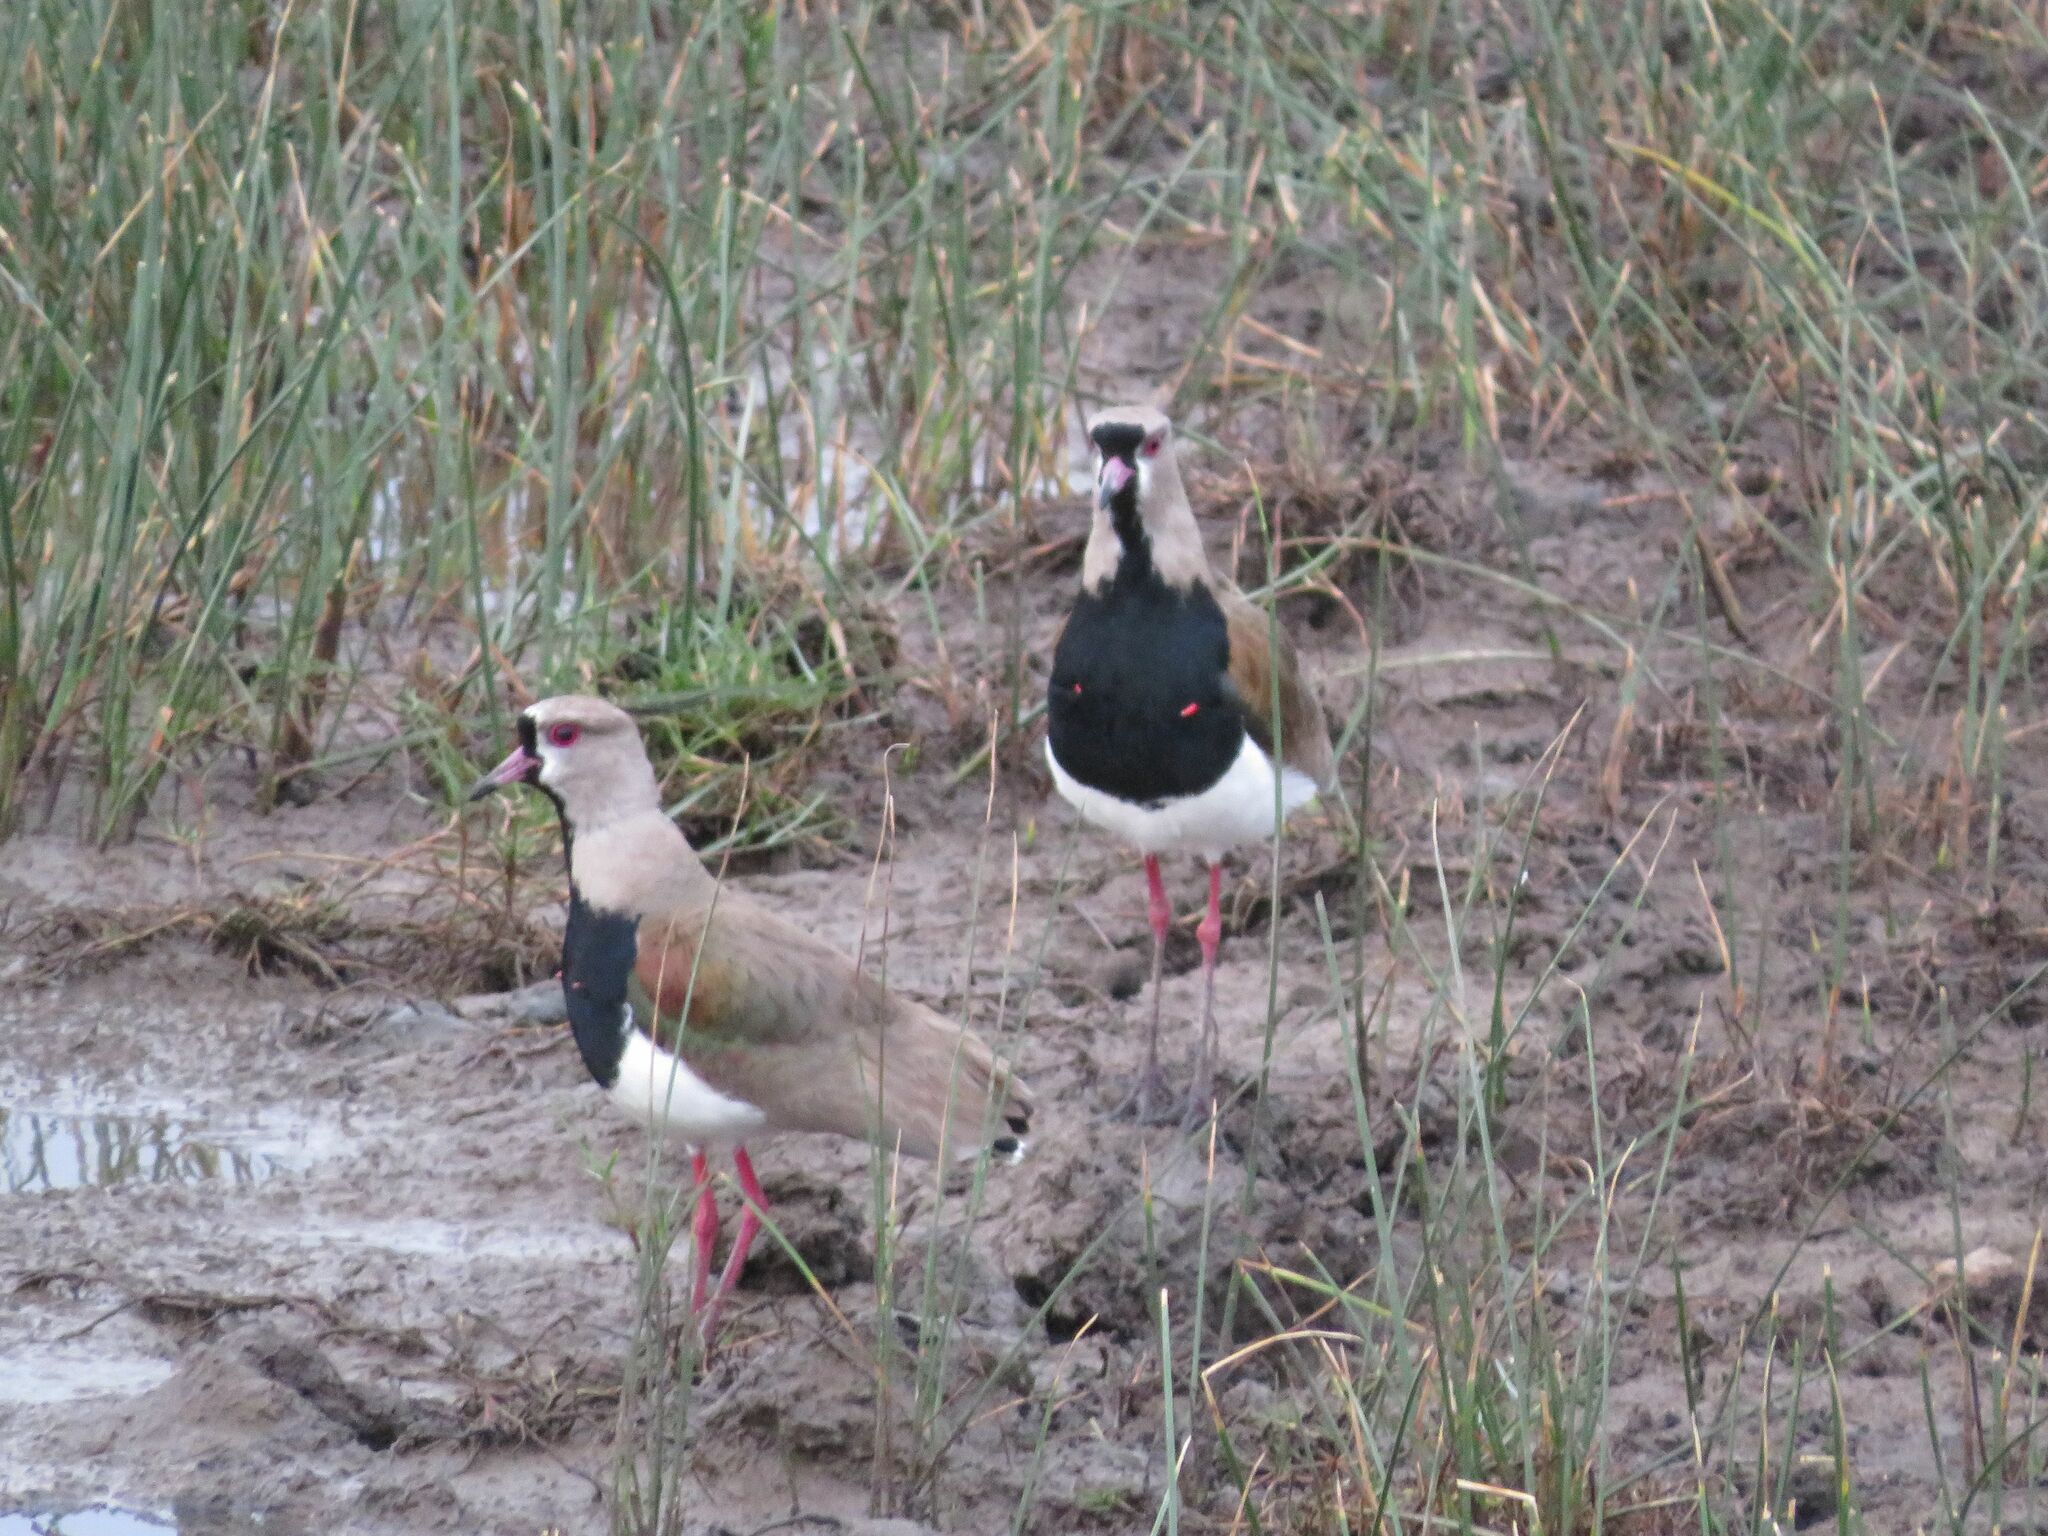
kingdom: Animalia
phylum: Chordata
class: Aves
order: Charadriiformes
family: Charadriidae
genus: Vanellus
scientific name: Vanellus chilensis
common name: Southern lapwing
